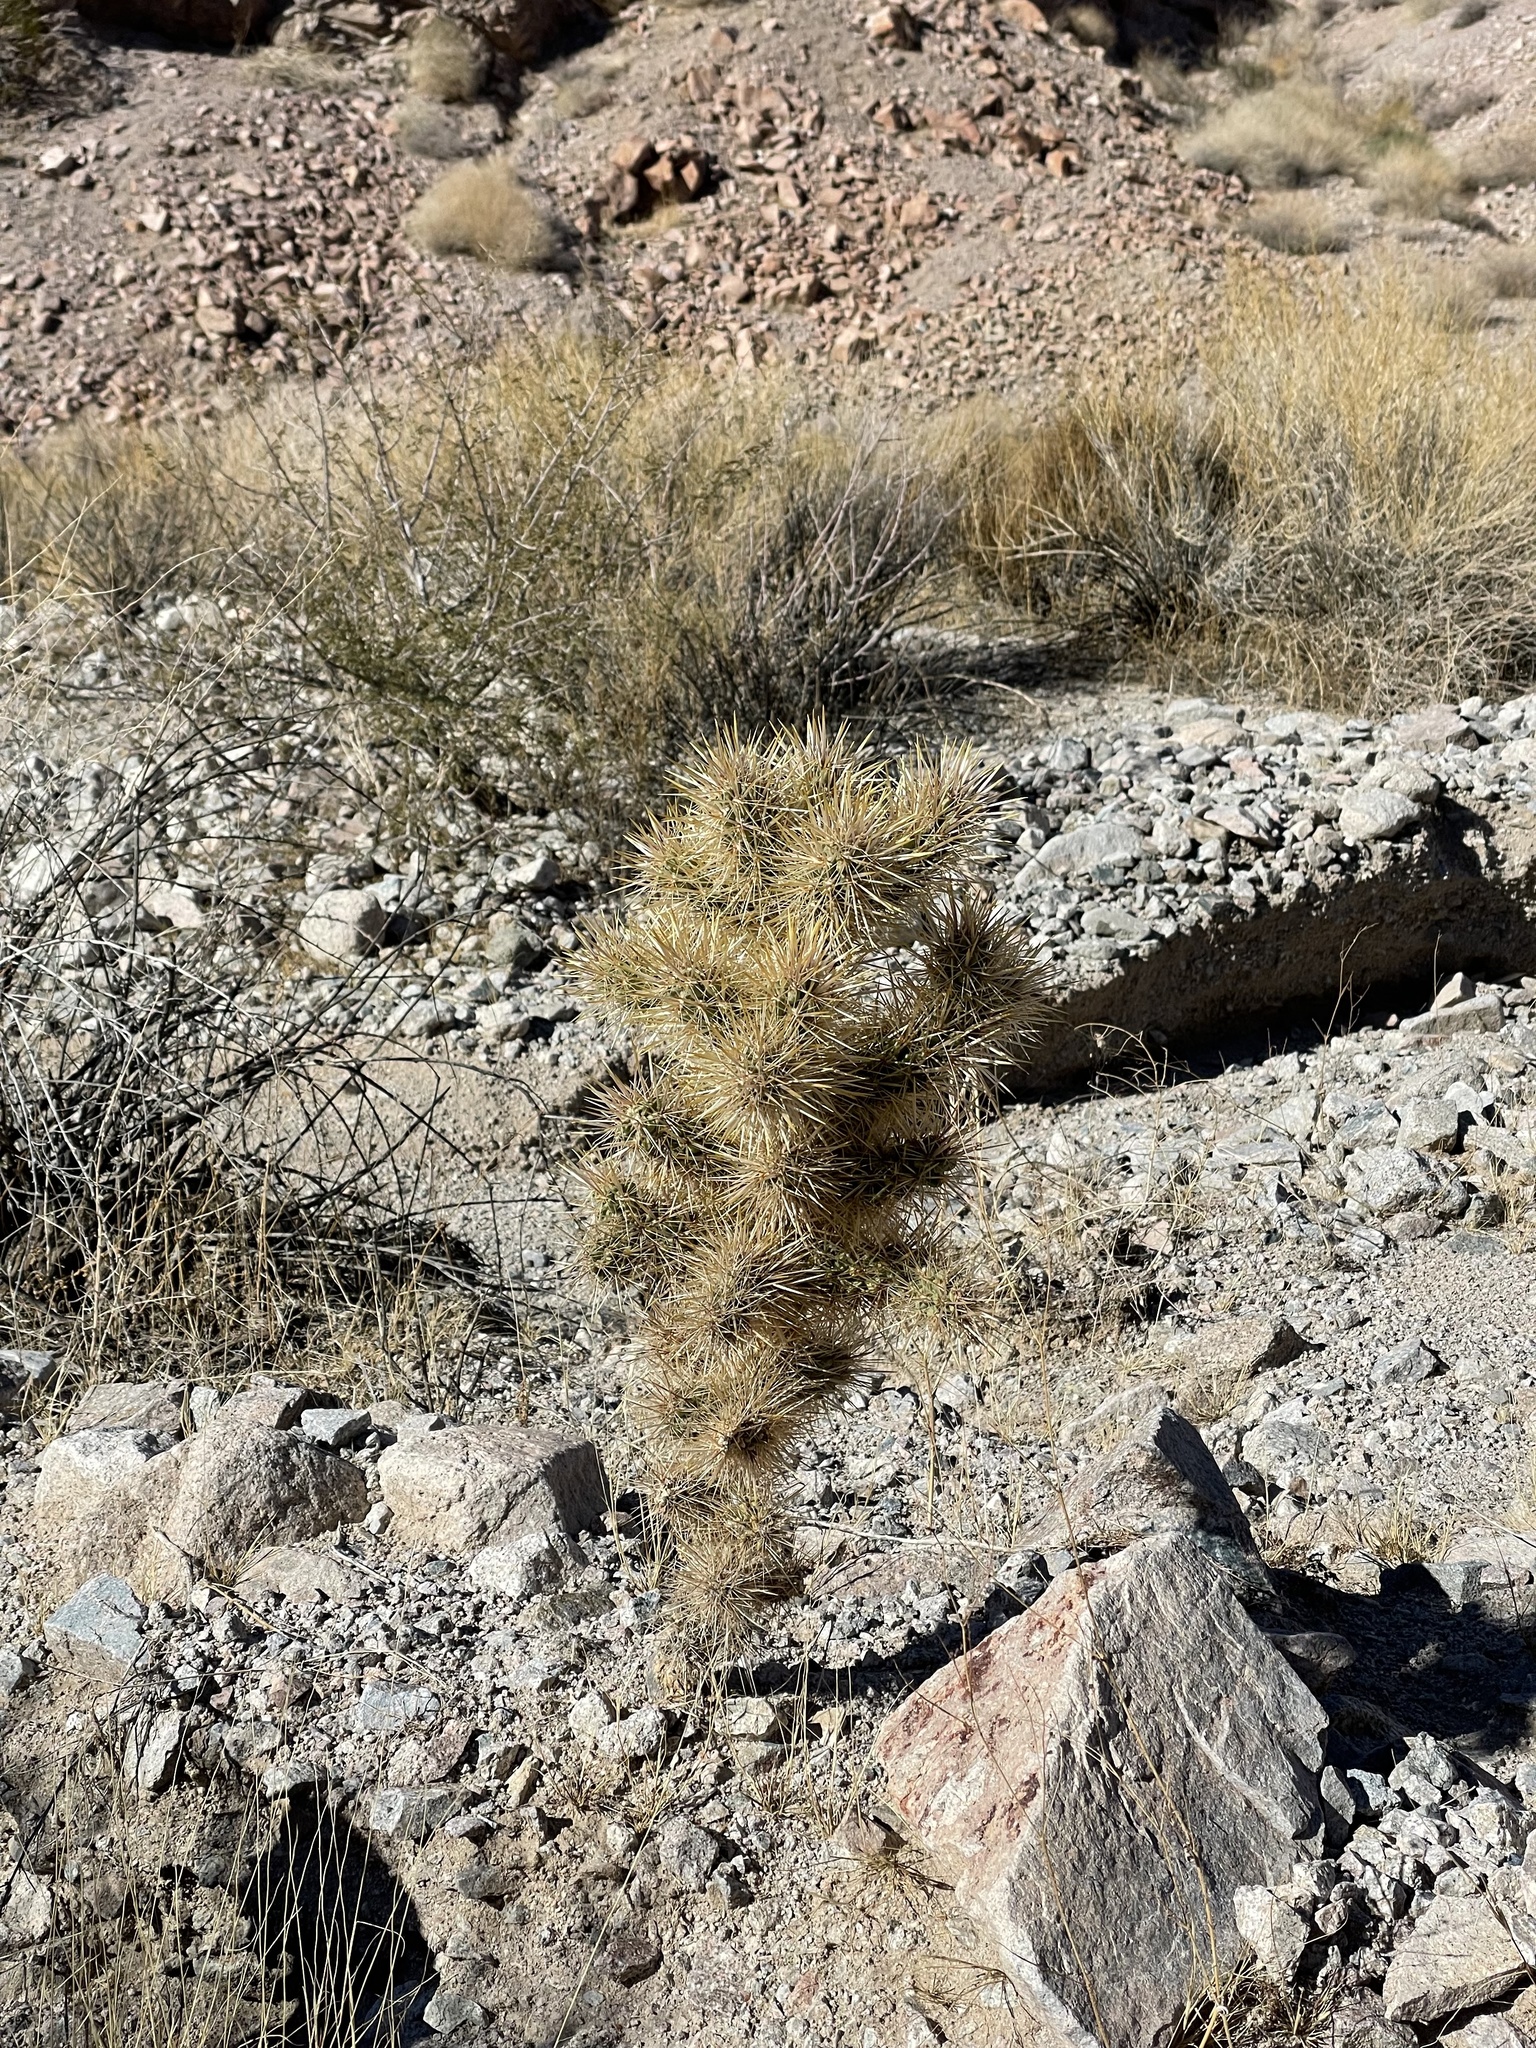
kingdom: Plantae
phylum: Tracheophyta
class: Magnoliopsida
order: Caryophyllales
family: Cactaceae
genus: Cylindropuntia
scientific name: Cylindropuntia echinocarpa
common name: Ground cholla
